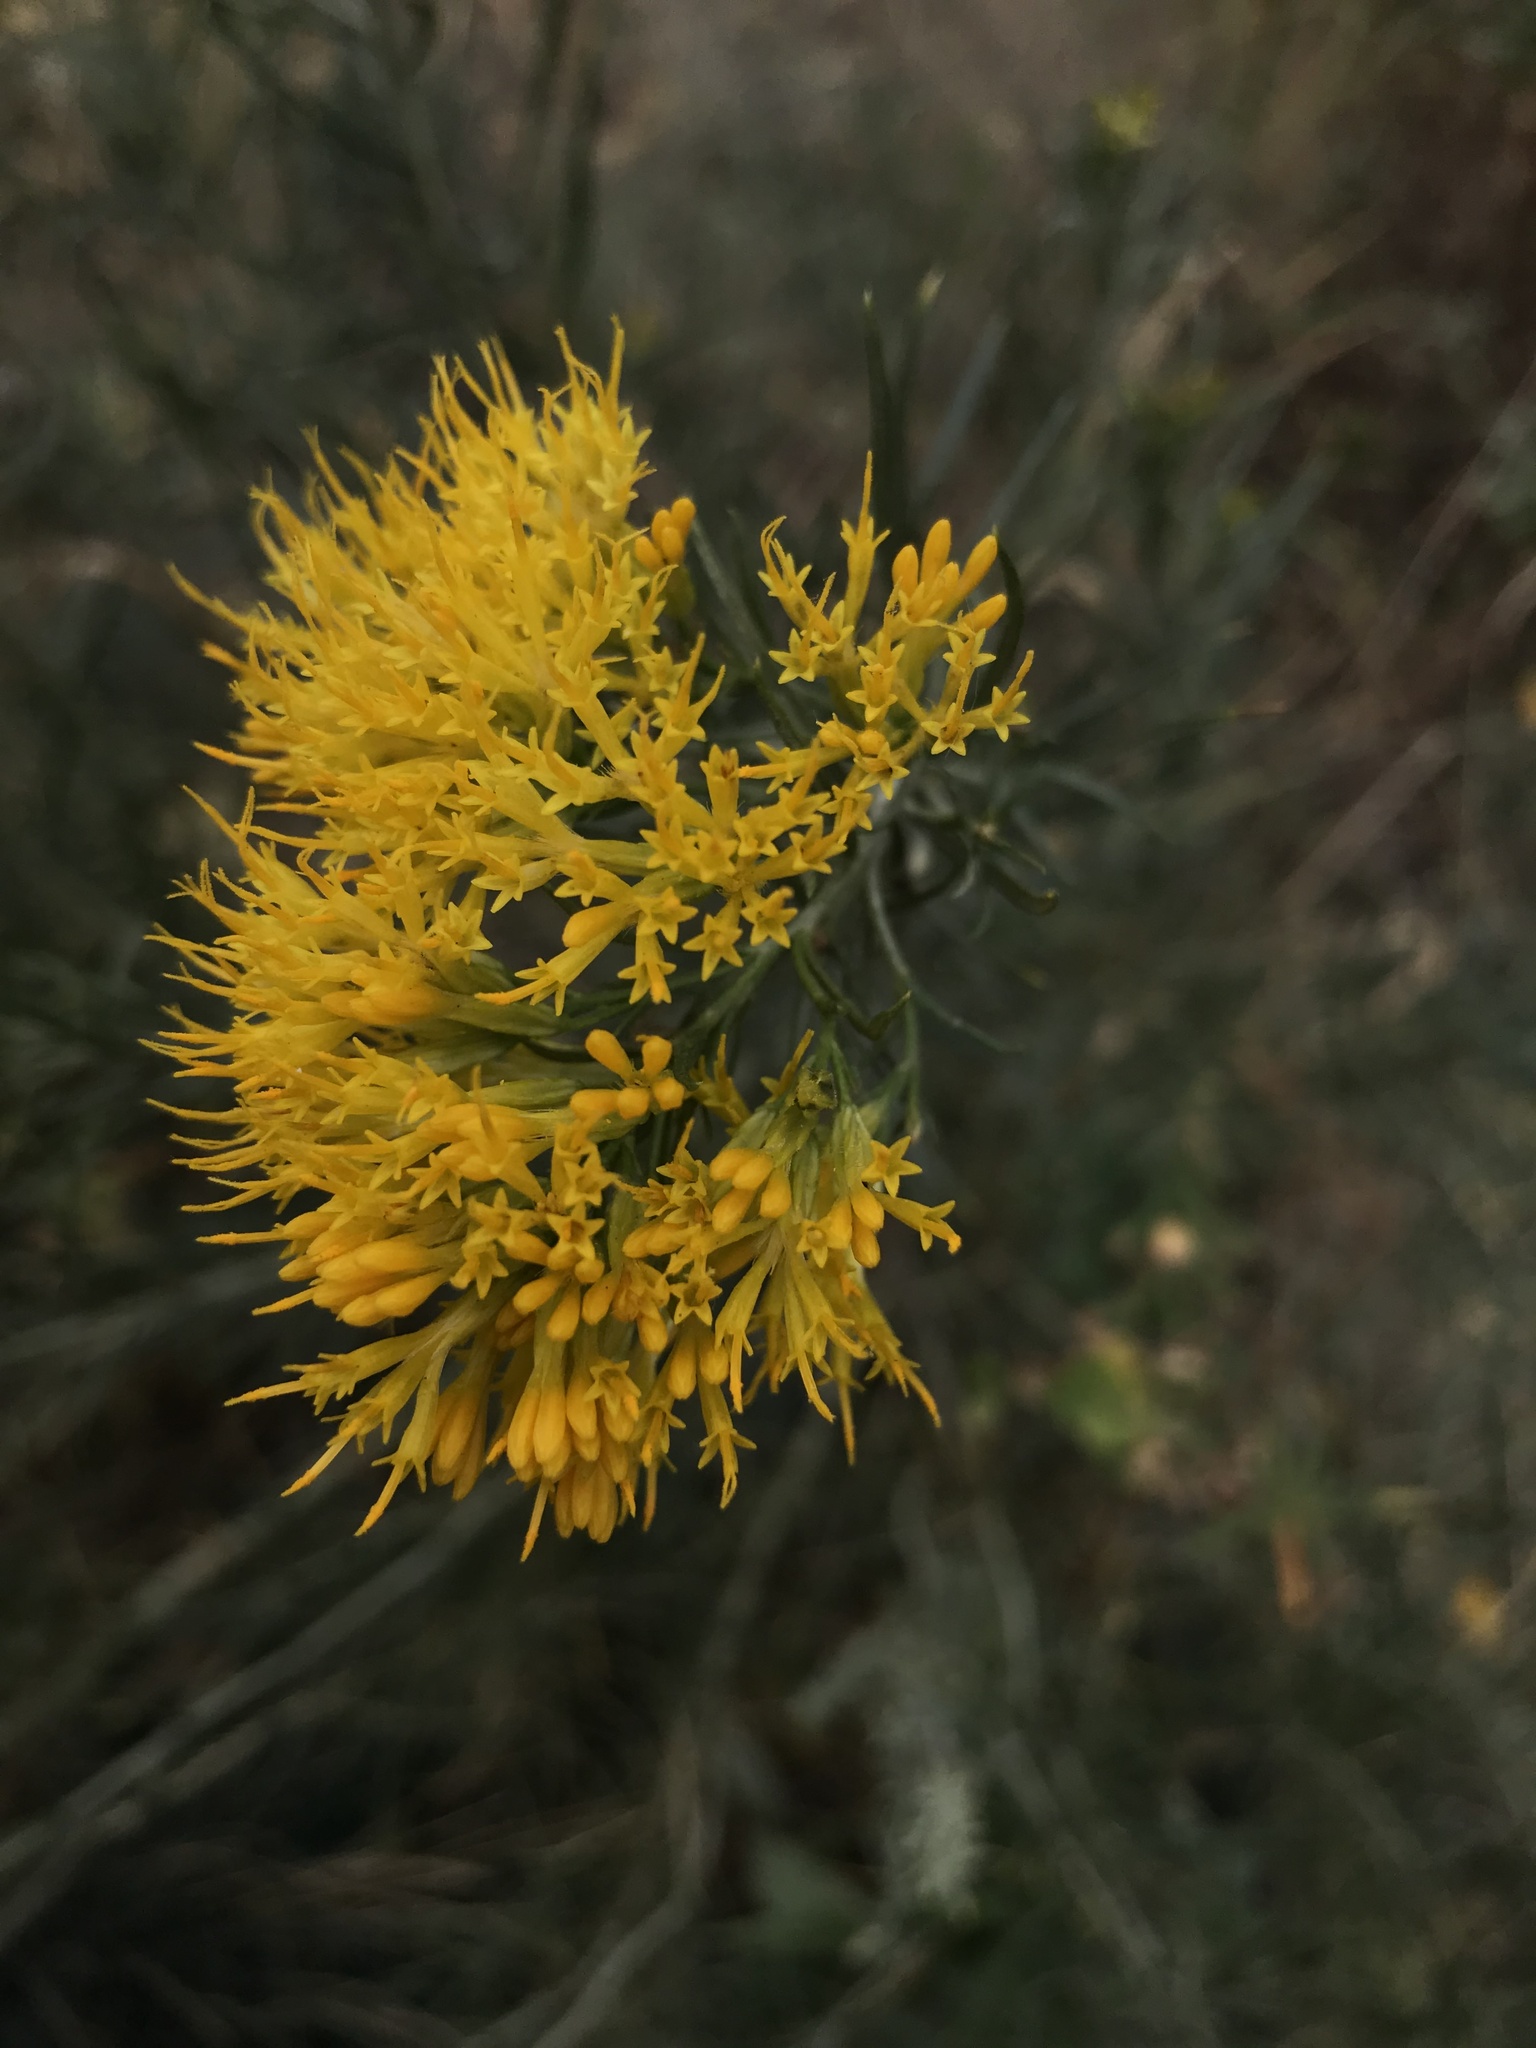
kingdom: Plantae
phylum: Tracheophyta
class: Magnoliopsida
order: Asterales
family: Asteraceae
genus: Ericameria
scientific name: Ericameria nauseosa
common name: Rubber rabbitbrush
